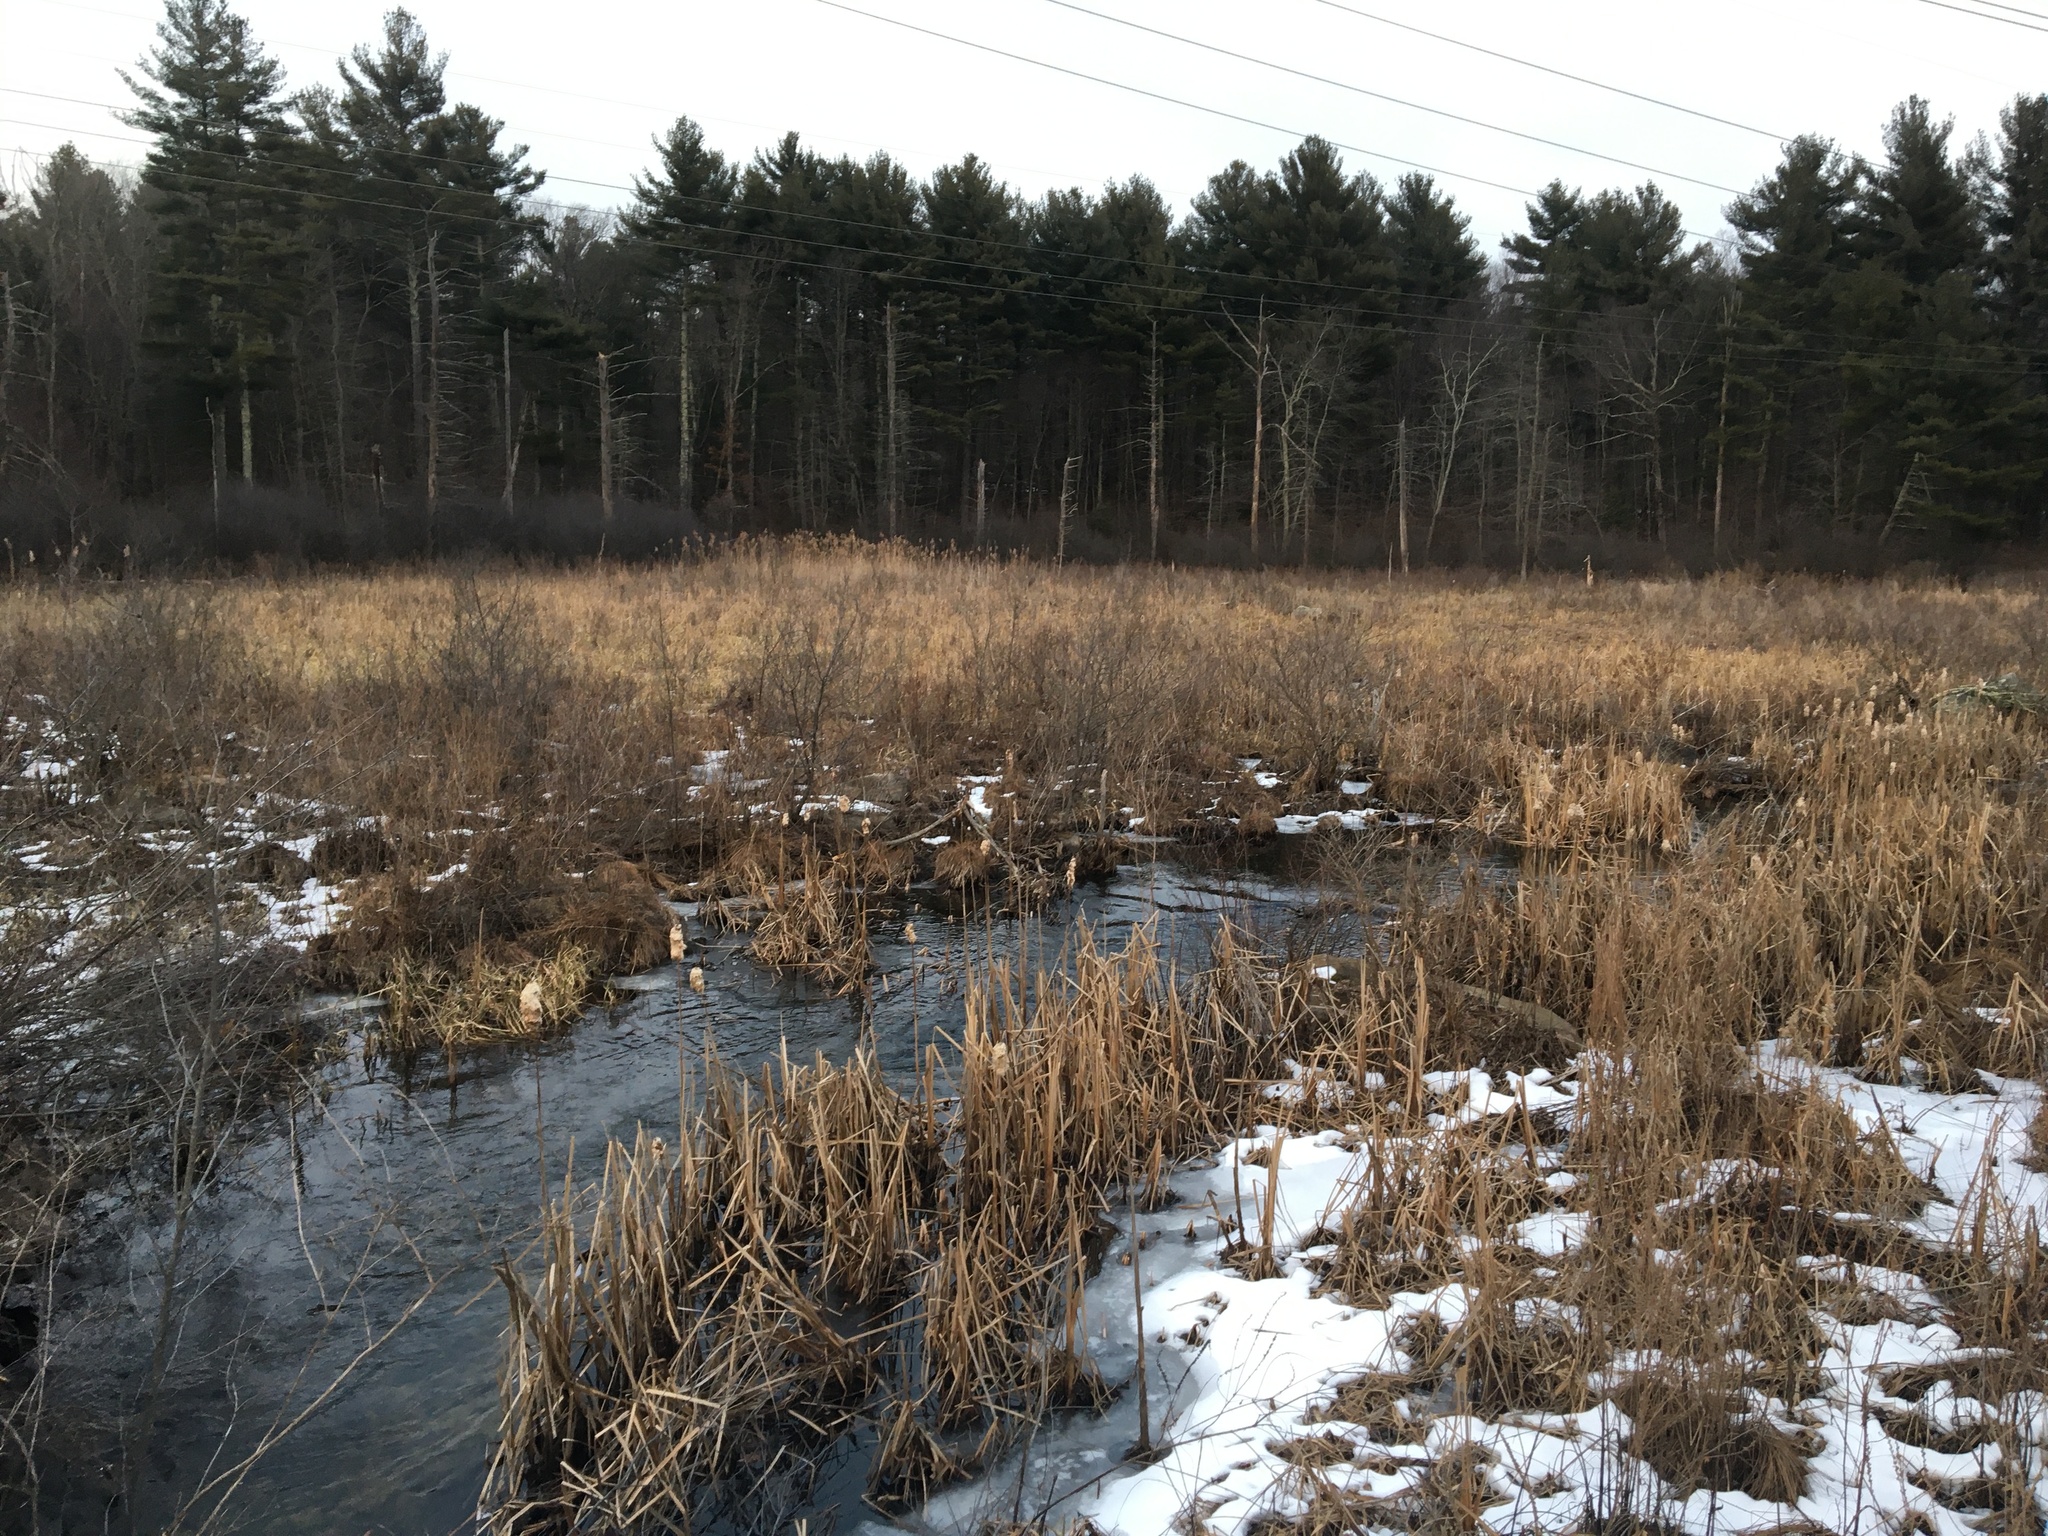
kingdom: Plantae
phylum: Tracheophyta
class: Pinopsida
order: Pinales
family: Pinaceae
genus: Pinus
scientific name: Pinus strobus
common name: Weymouth pine
